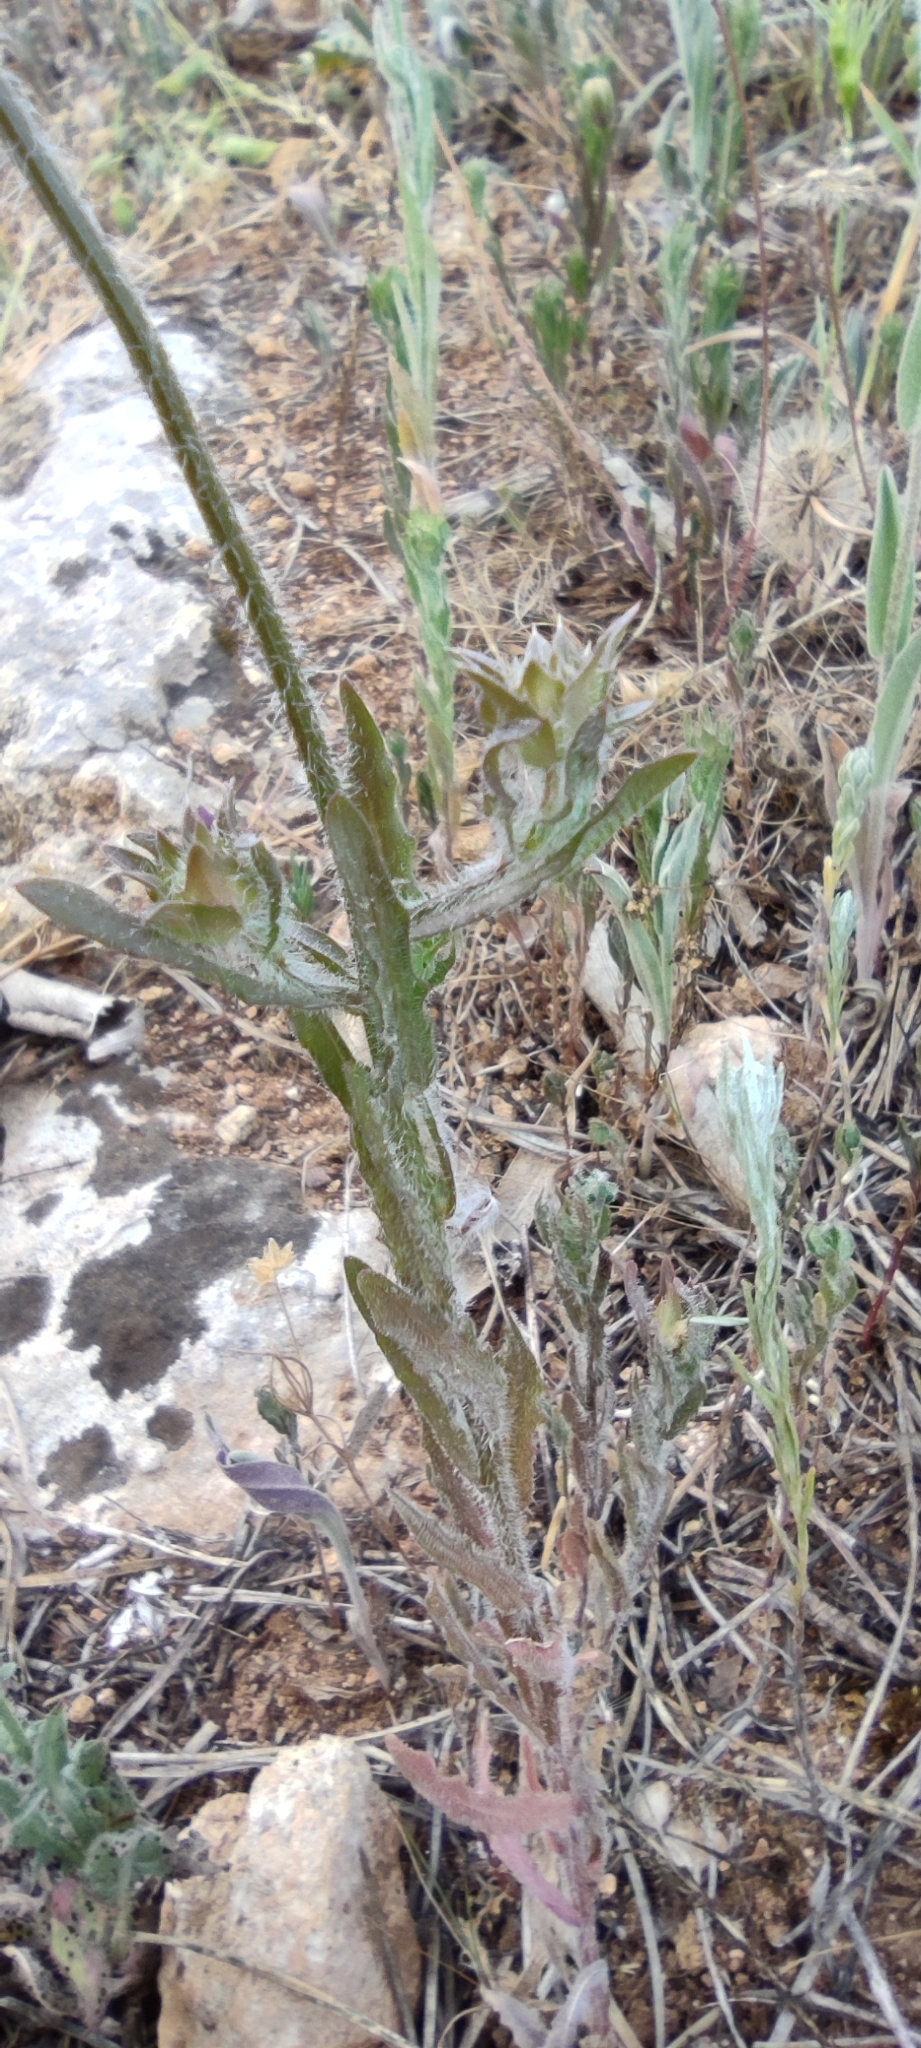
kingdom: Plantae
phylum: Tracheophyta
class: Magnoliopsida
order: Asterales
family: Campanulaceae
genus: Jasione
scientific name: Jasione montana
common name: Sheep's-bit
